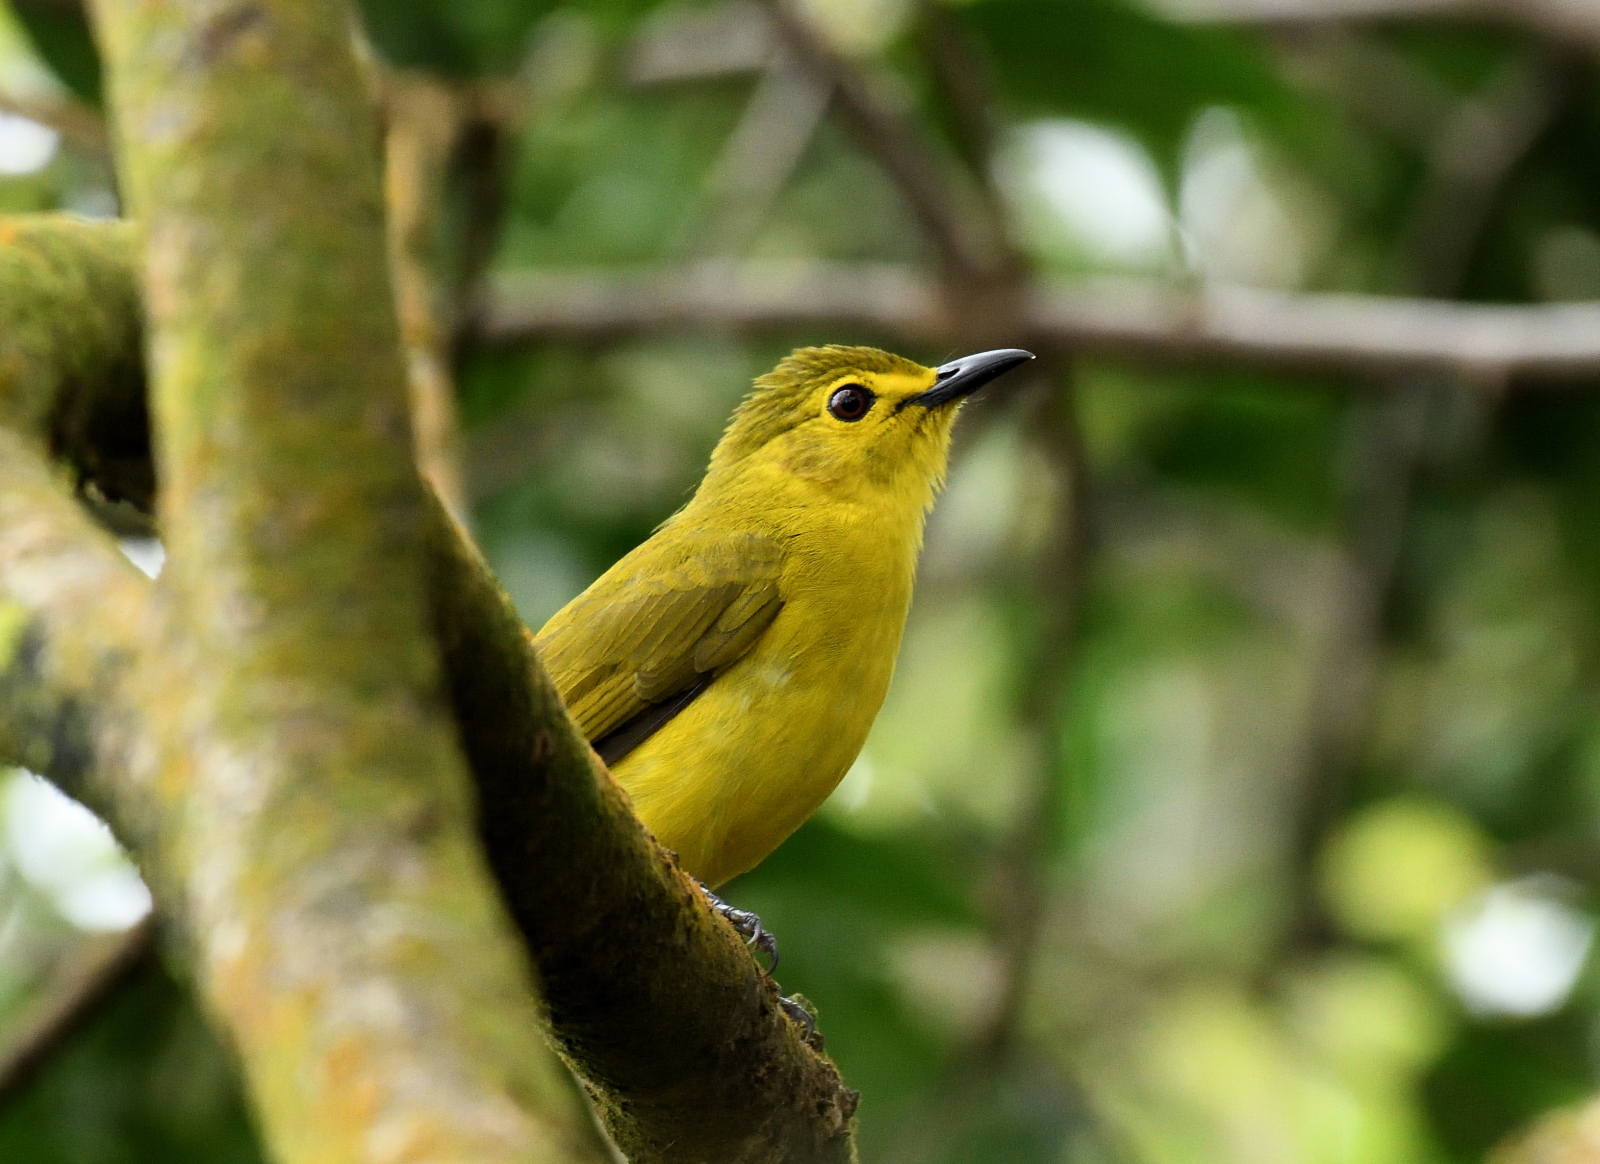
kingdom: Animalia
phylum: Chordata
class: Aves
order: Passeriformes
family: Pycnonotidae
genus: Acritillas
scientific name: Acritillas indica
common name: Yellow-browed bulbul
